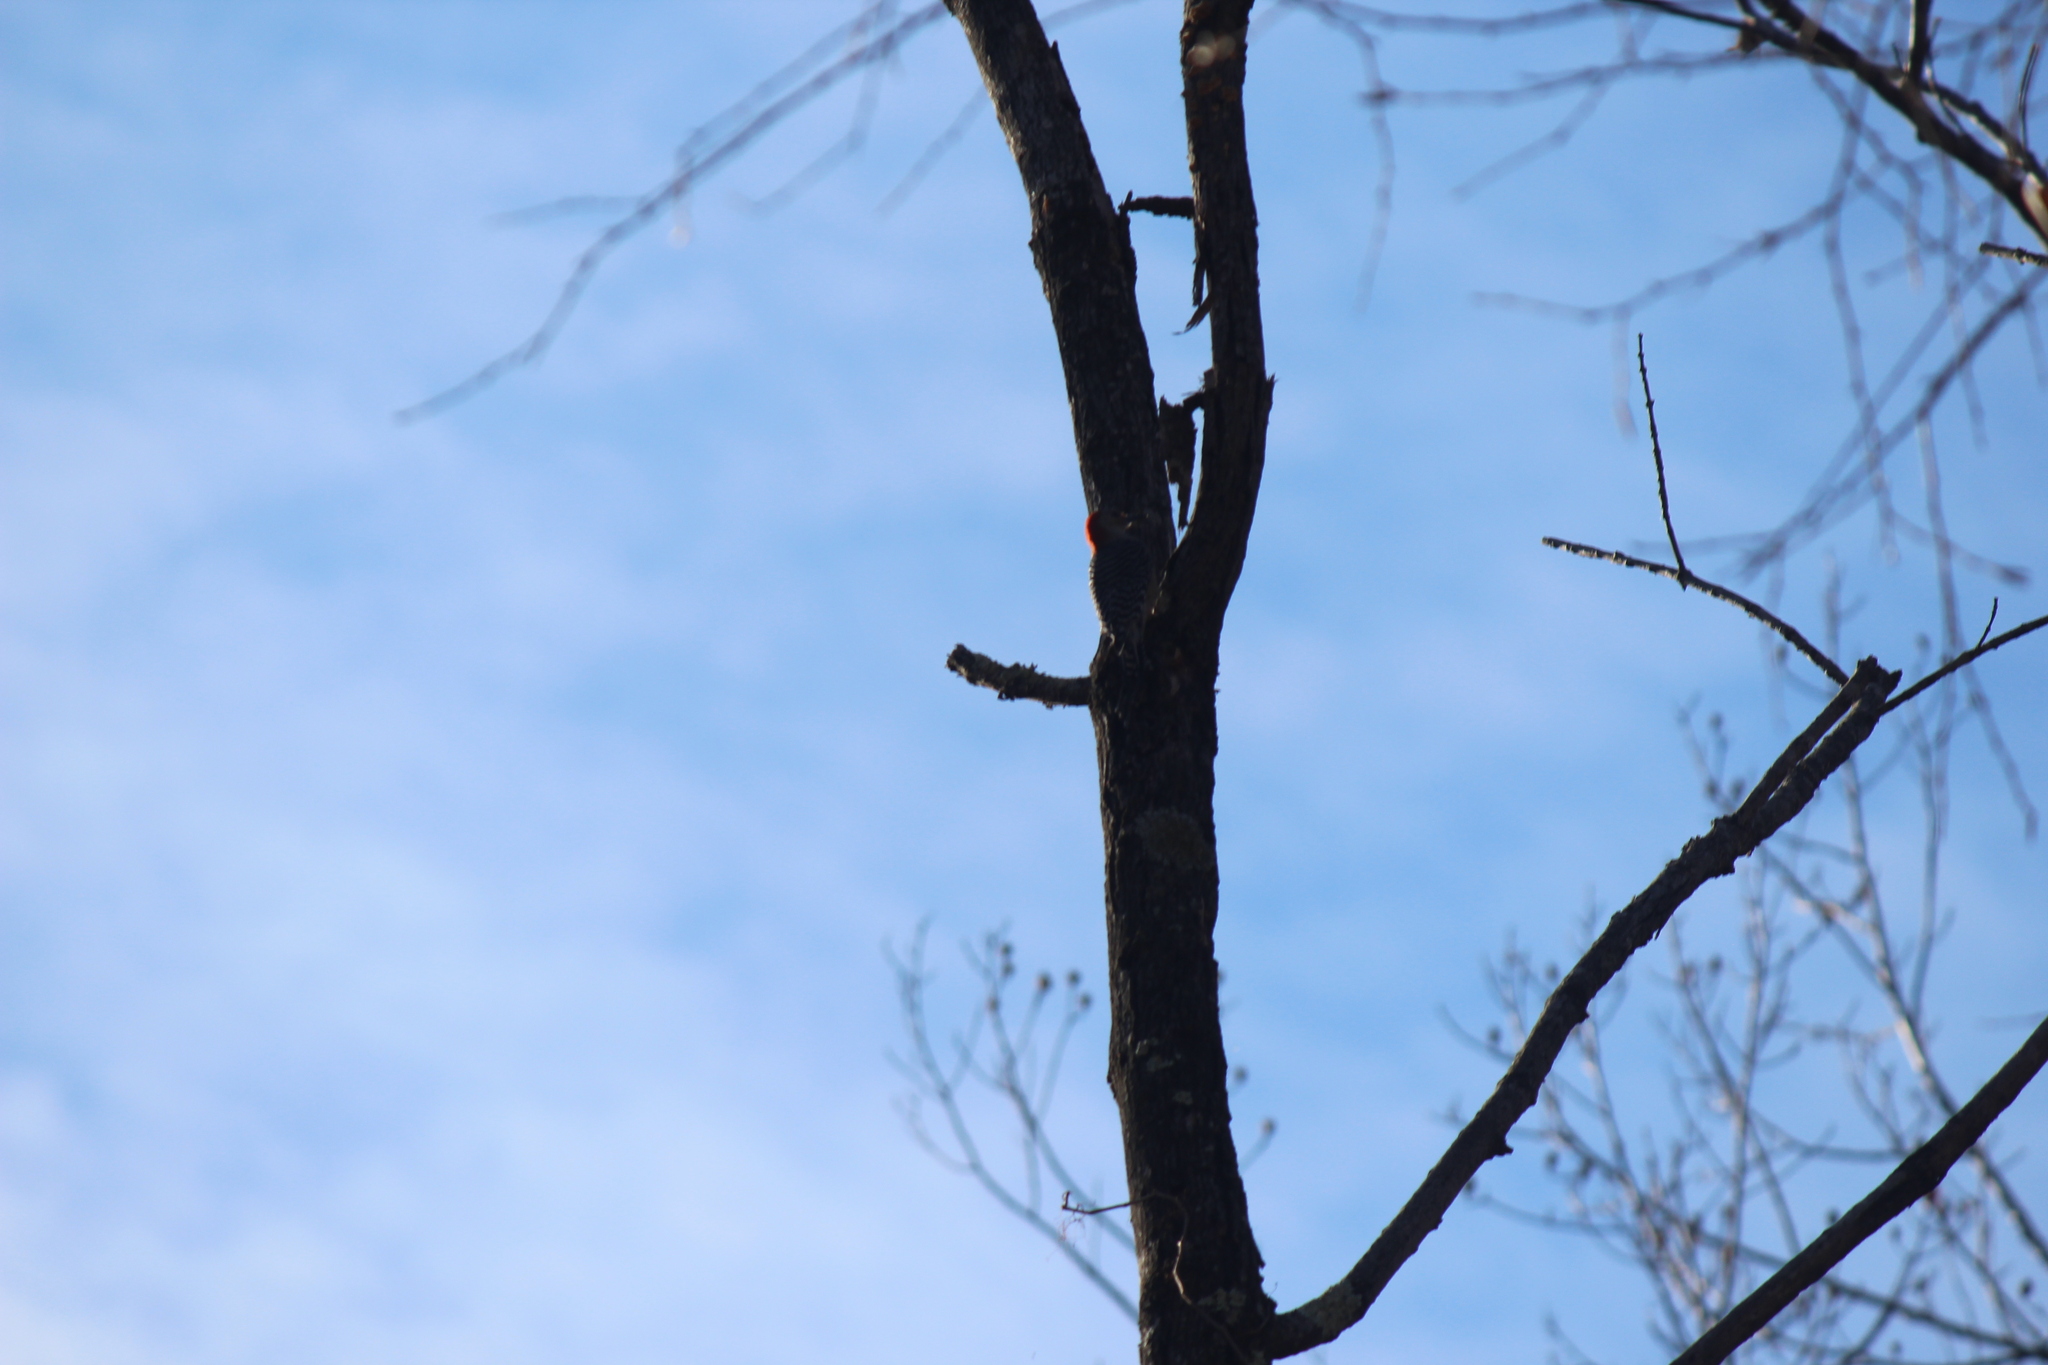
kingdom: Animalia
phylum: Chordata
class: Aves
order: Piciformes
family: Picidae
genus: Melanerpes
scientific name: Melanerpes carolinus
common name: Red-bellied woodpecker
